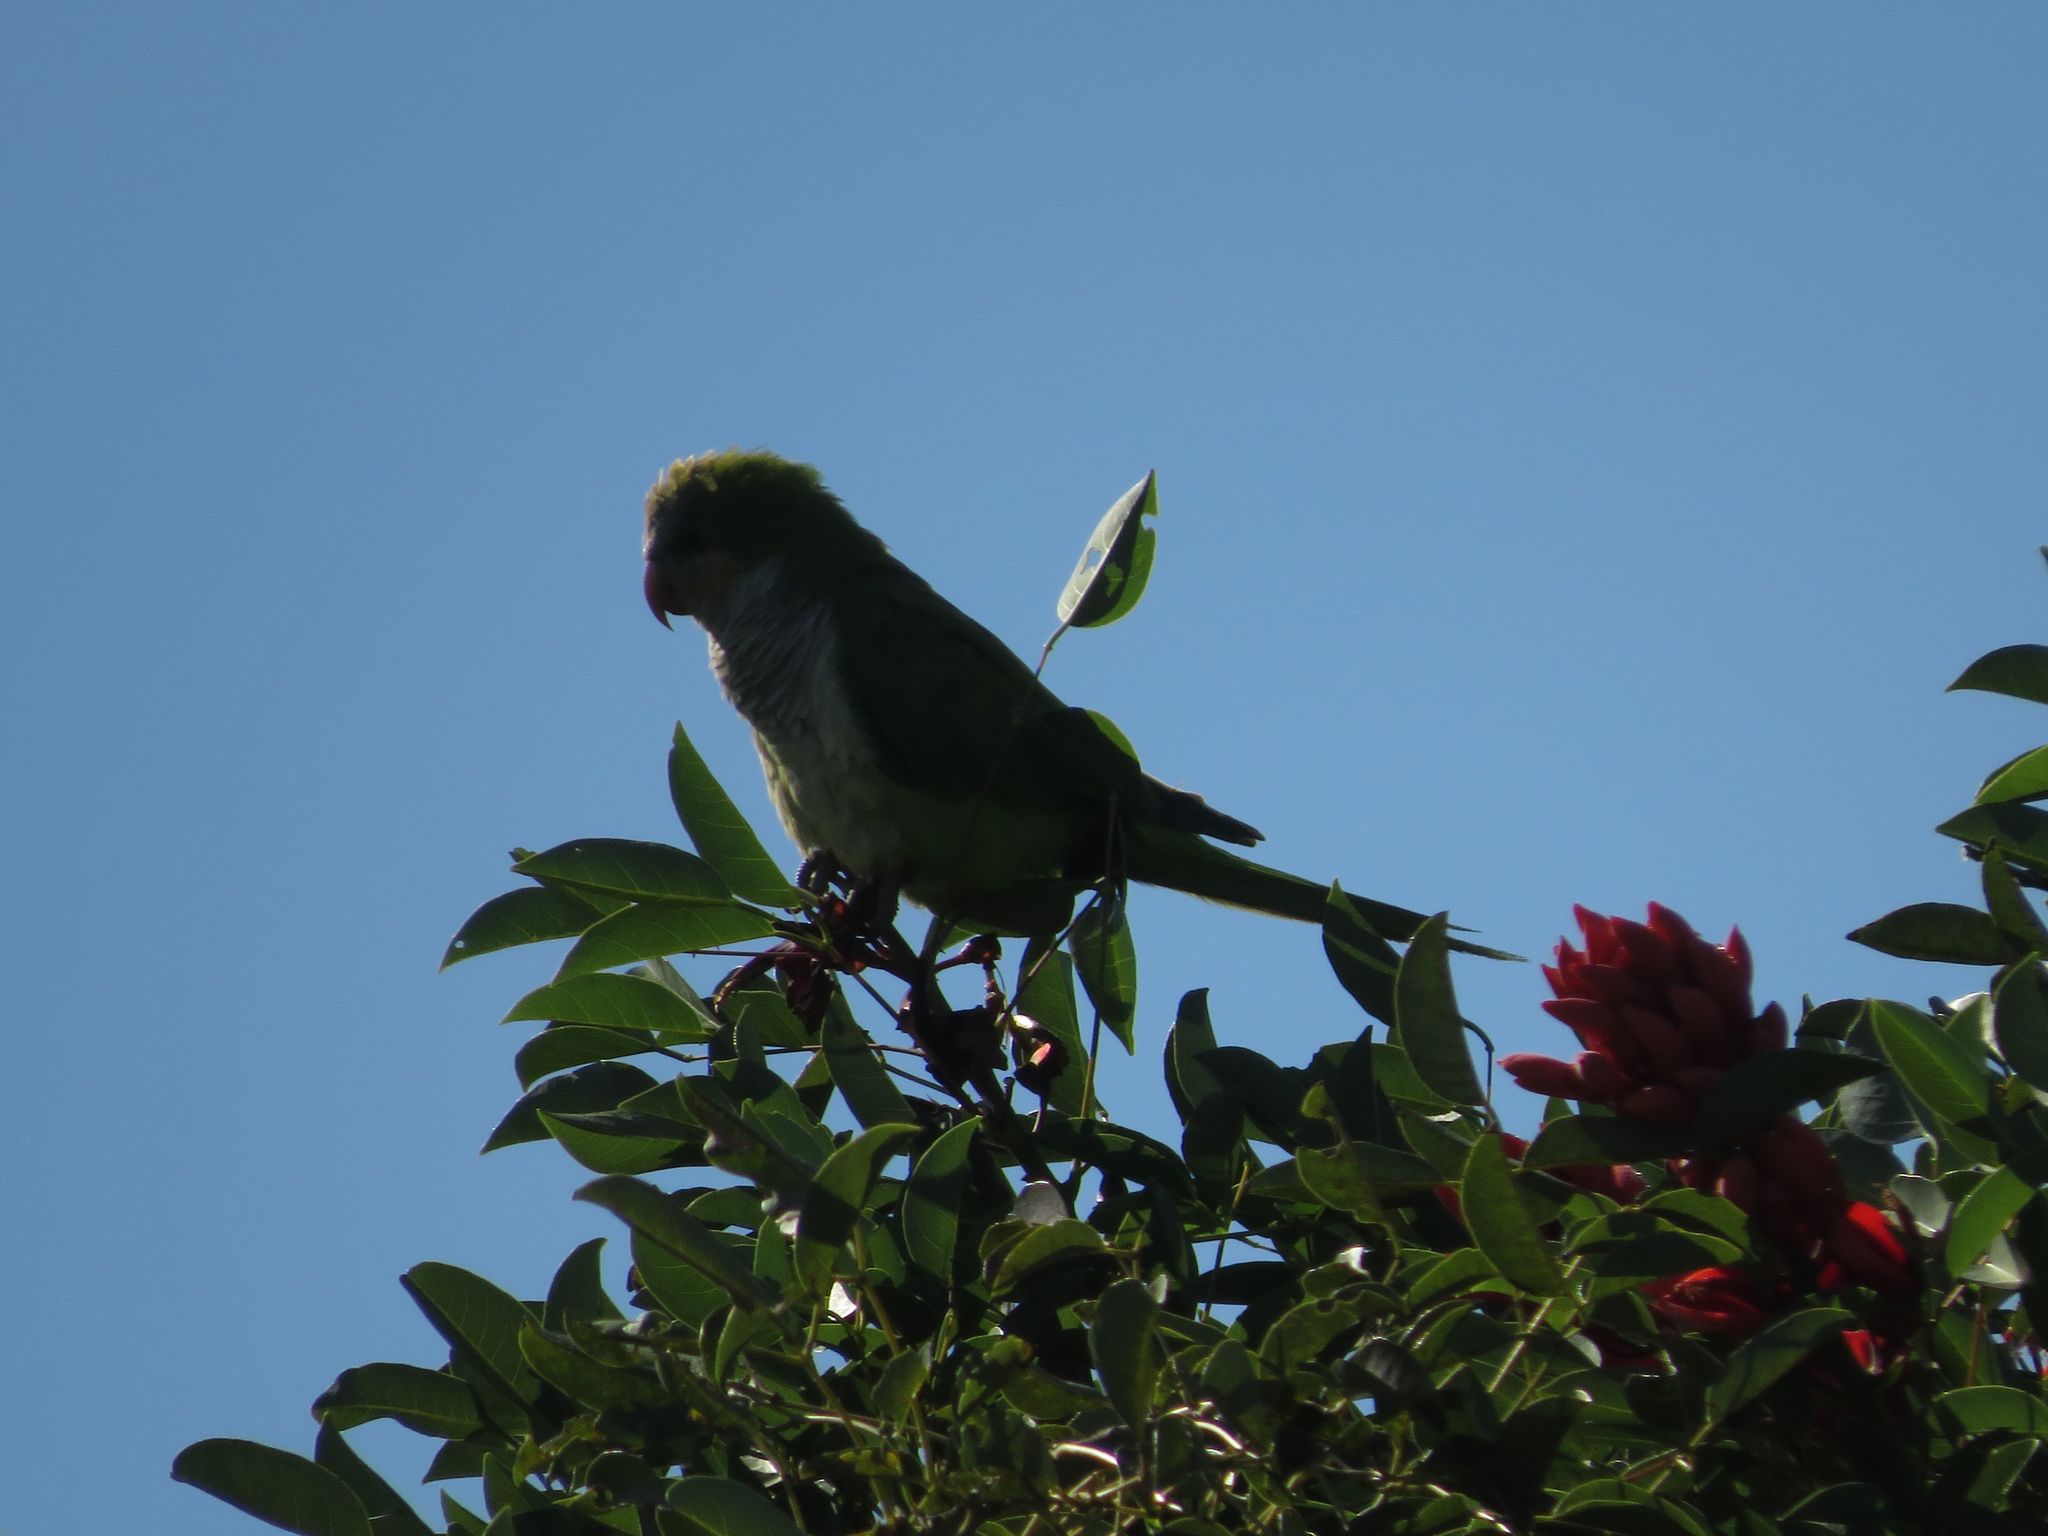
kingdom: Animalia
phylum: Chordata
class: Aves
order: Psittaciformes
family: Psittacidae
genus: Myiopsitta
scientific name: Myiopsitta monachus
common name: Monk parakeet
